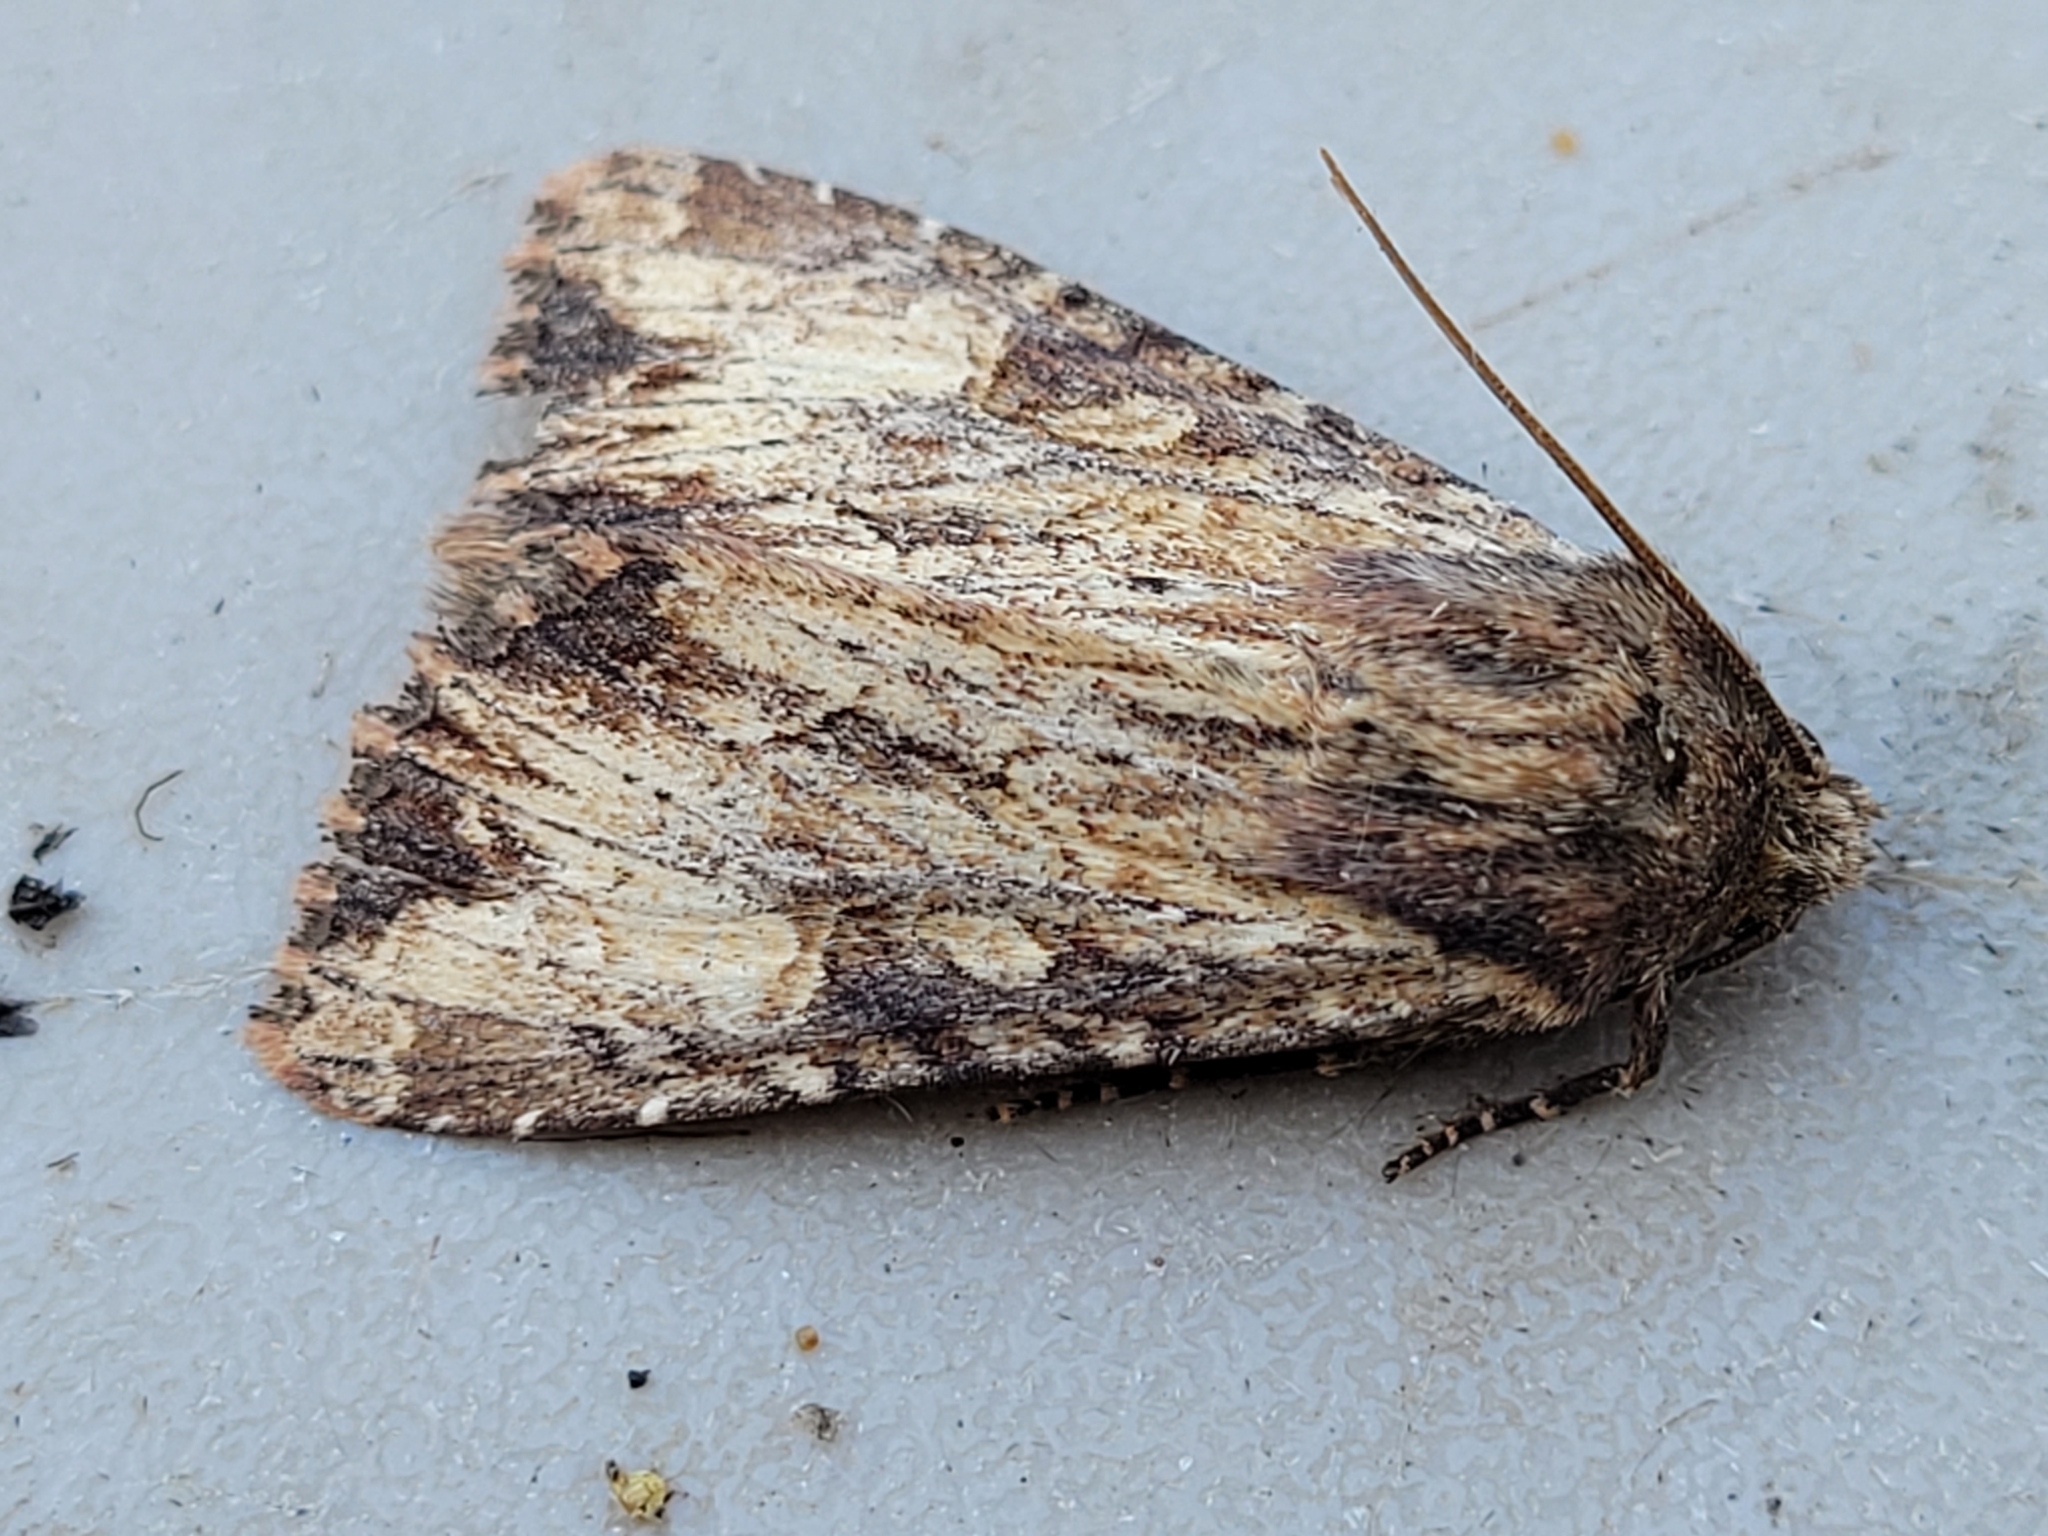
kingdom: Animalia
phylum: Arthropoda
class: Insecta
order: Lepidoptera
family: Noctuidae
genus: Apamea
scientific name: Apamea lignicolora
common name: Wood-colored apamea moth
